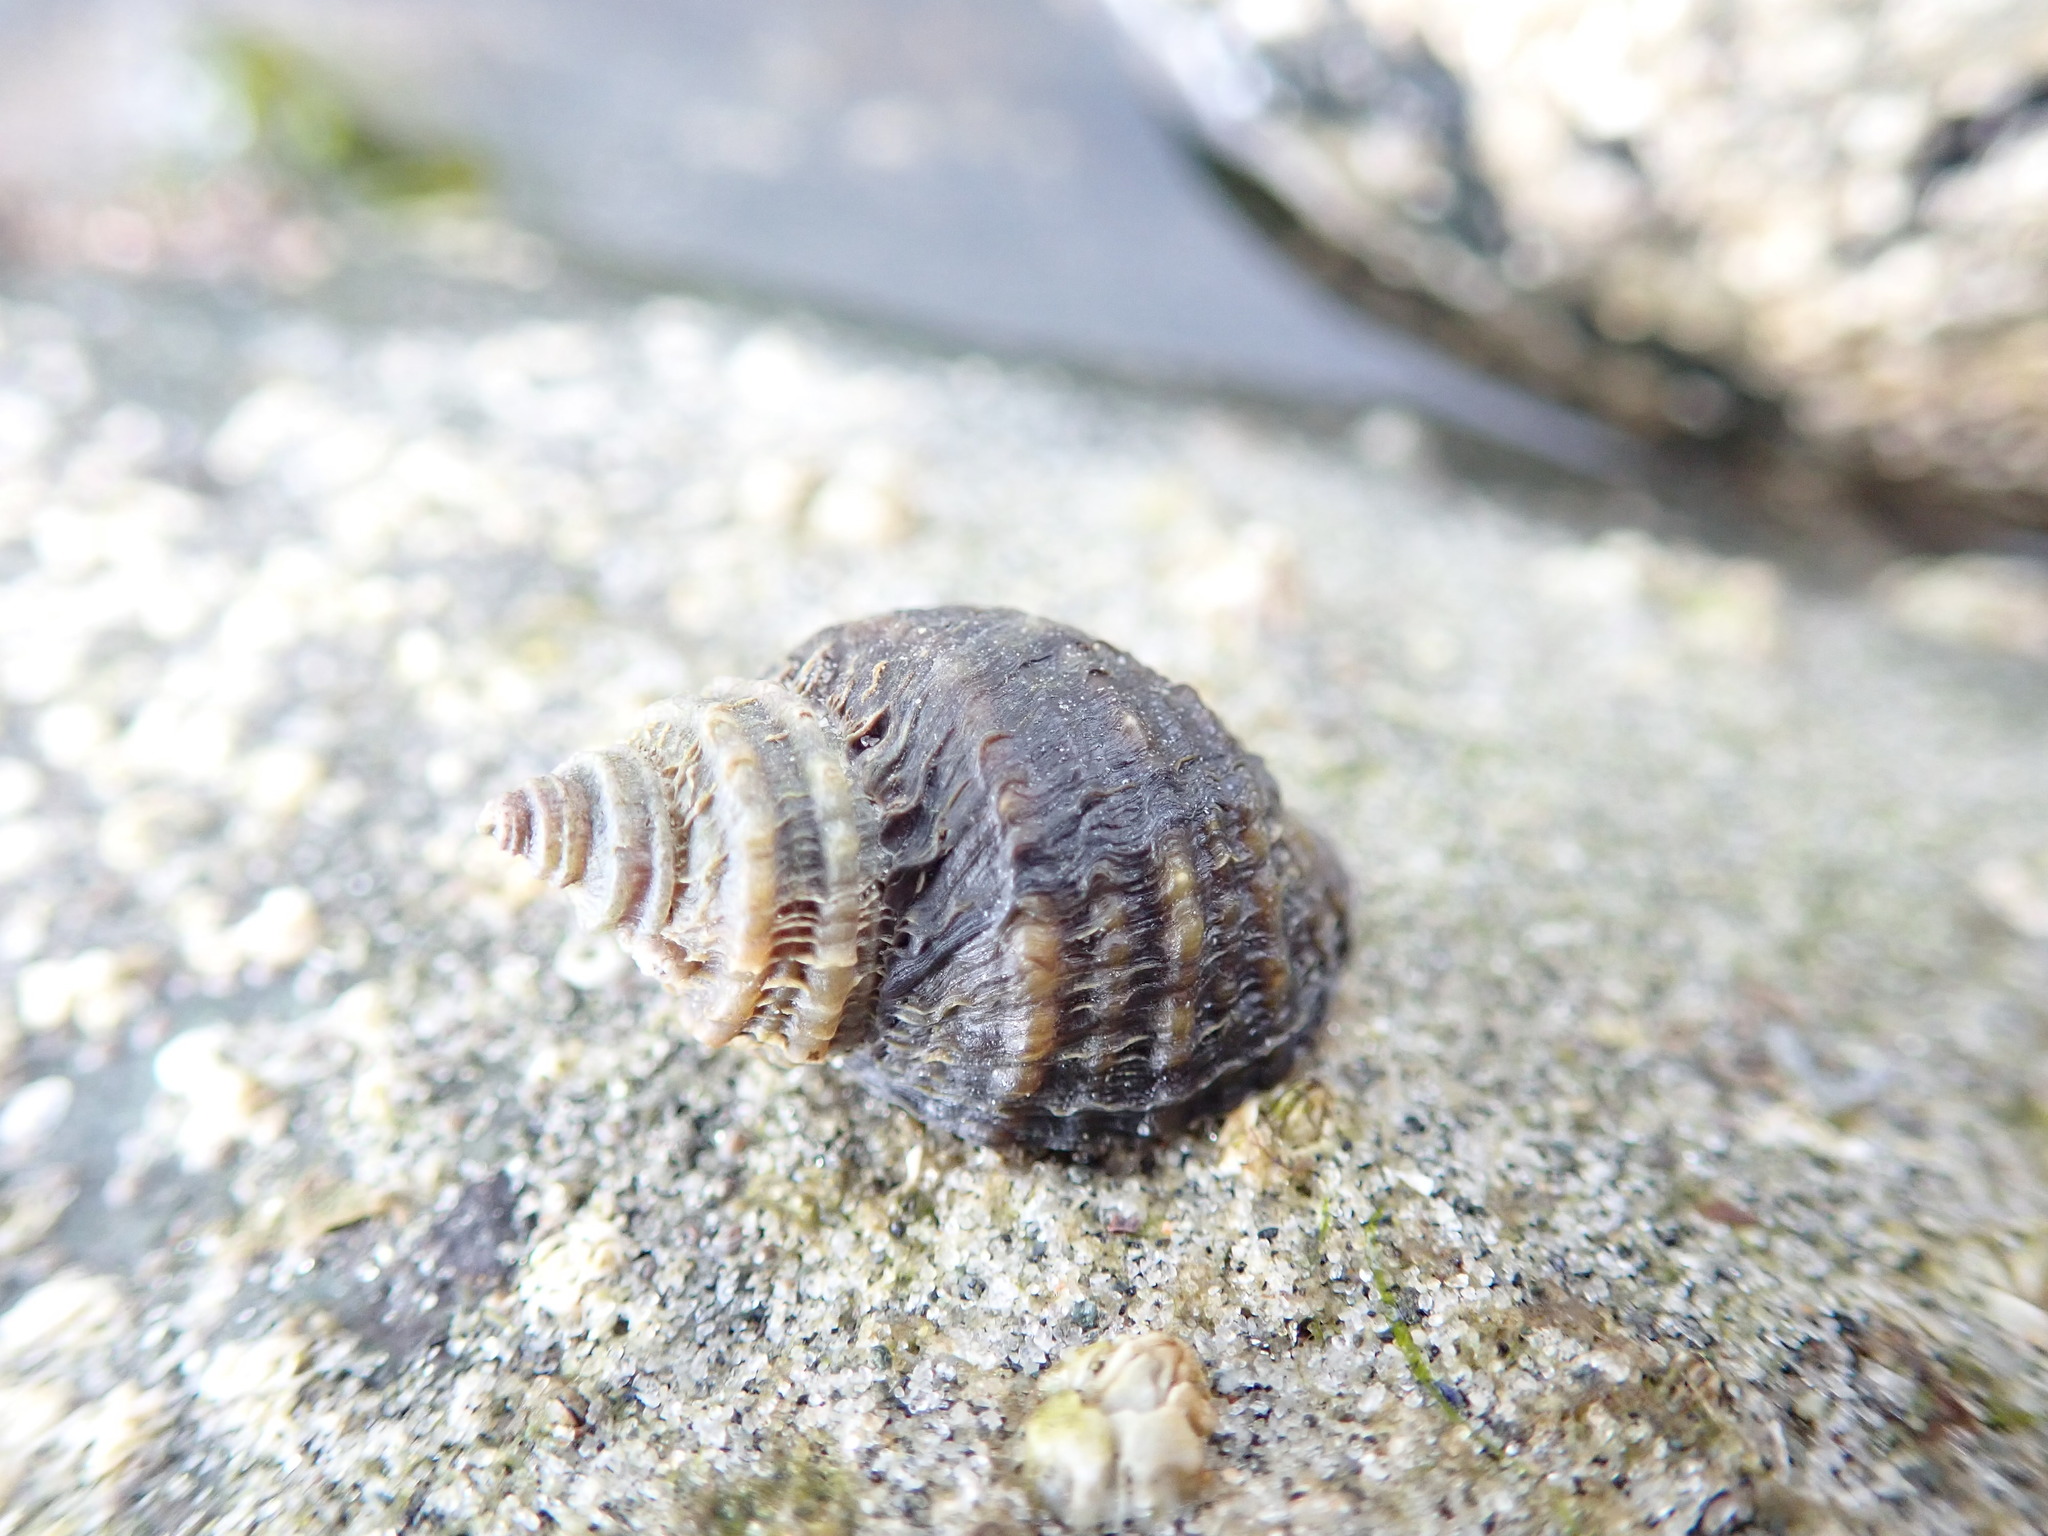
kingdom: Animalia
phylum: Mollusca
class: Gastropoda
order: Neogastropoda
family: Muricidae
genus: Nucella
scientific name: Nucella ostrina
